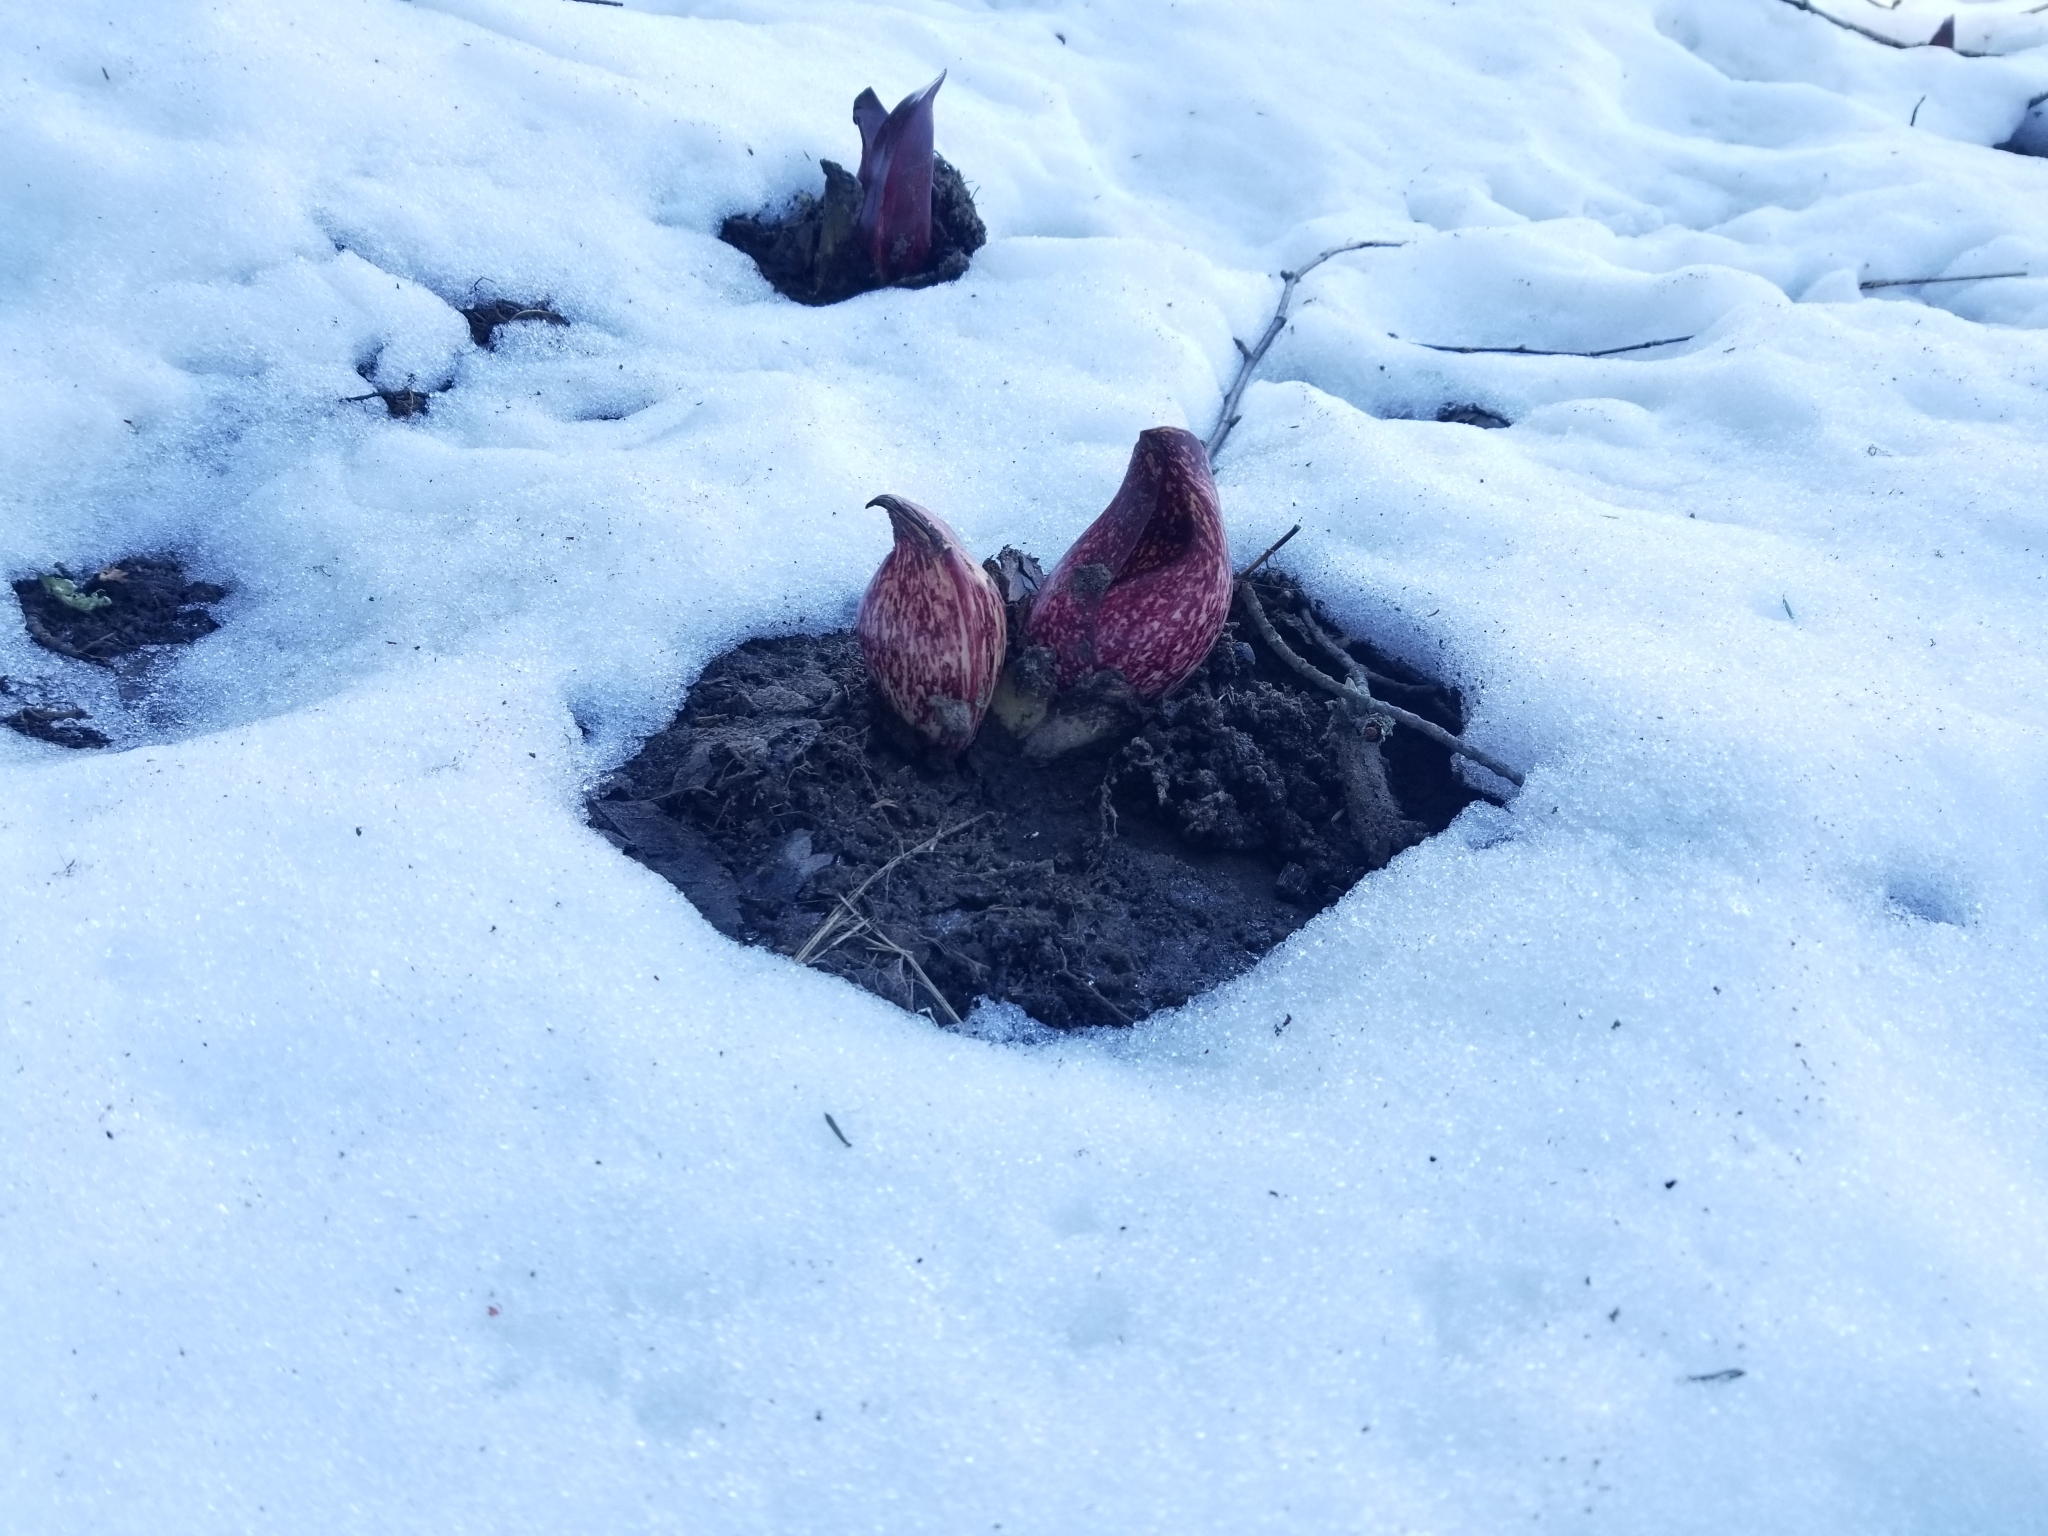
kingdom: Plantae
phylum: Tracheophyta
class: Liliopsida
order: Alismatales
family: Araceae
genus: Symplocarpus
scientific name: Symplocarpus foetidus
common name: Eastern skunk cabbage
